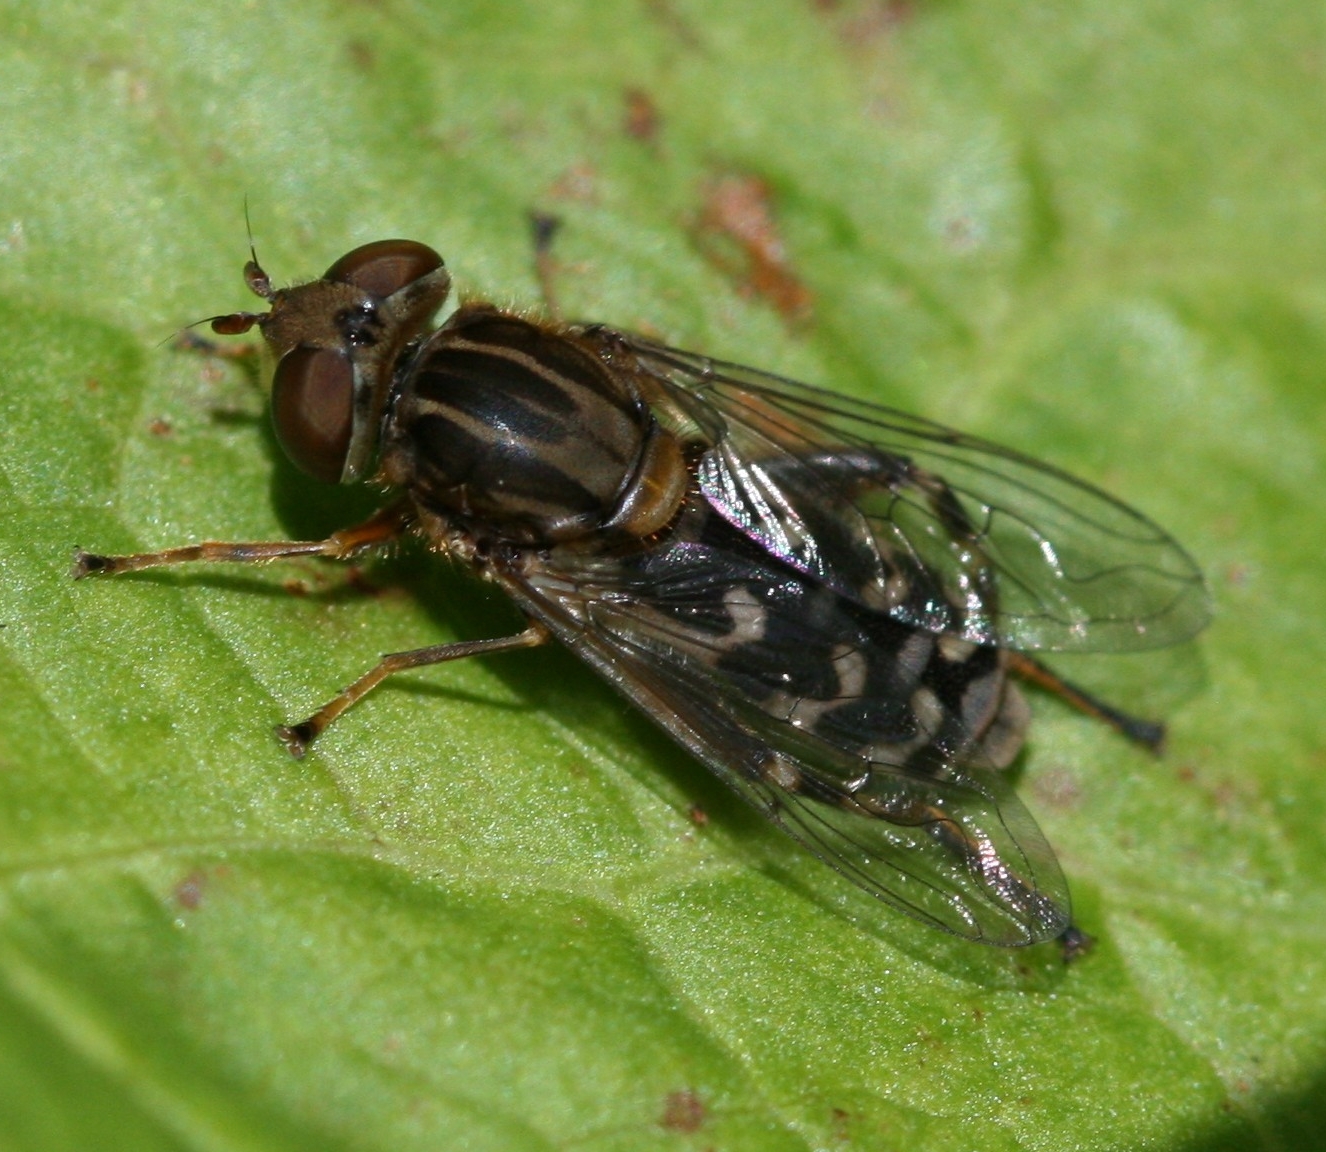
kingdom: Animalia
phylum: Arthropoda
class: Insecta
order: Diptera
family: Syrphidae
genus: Anasimyia
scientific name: Anasimyia contracta
